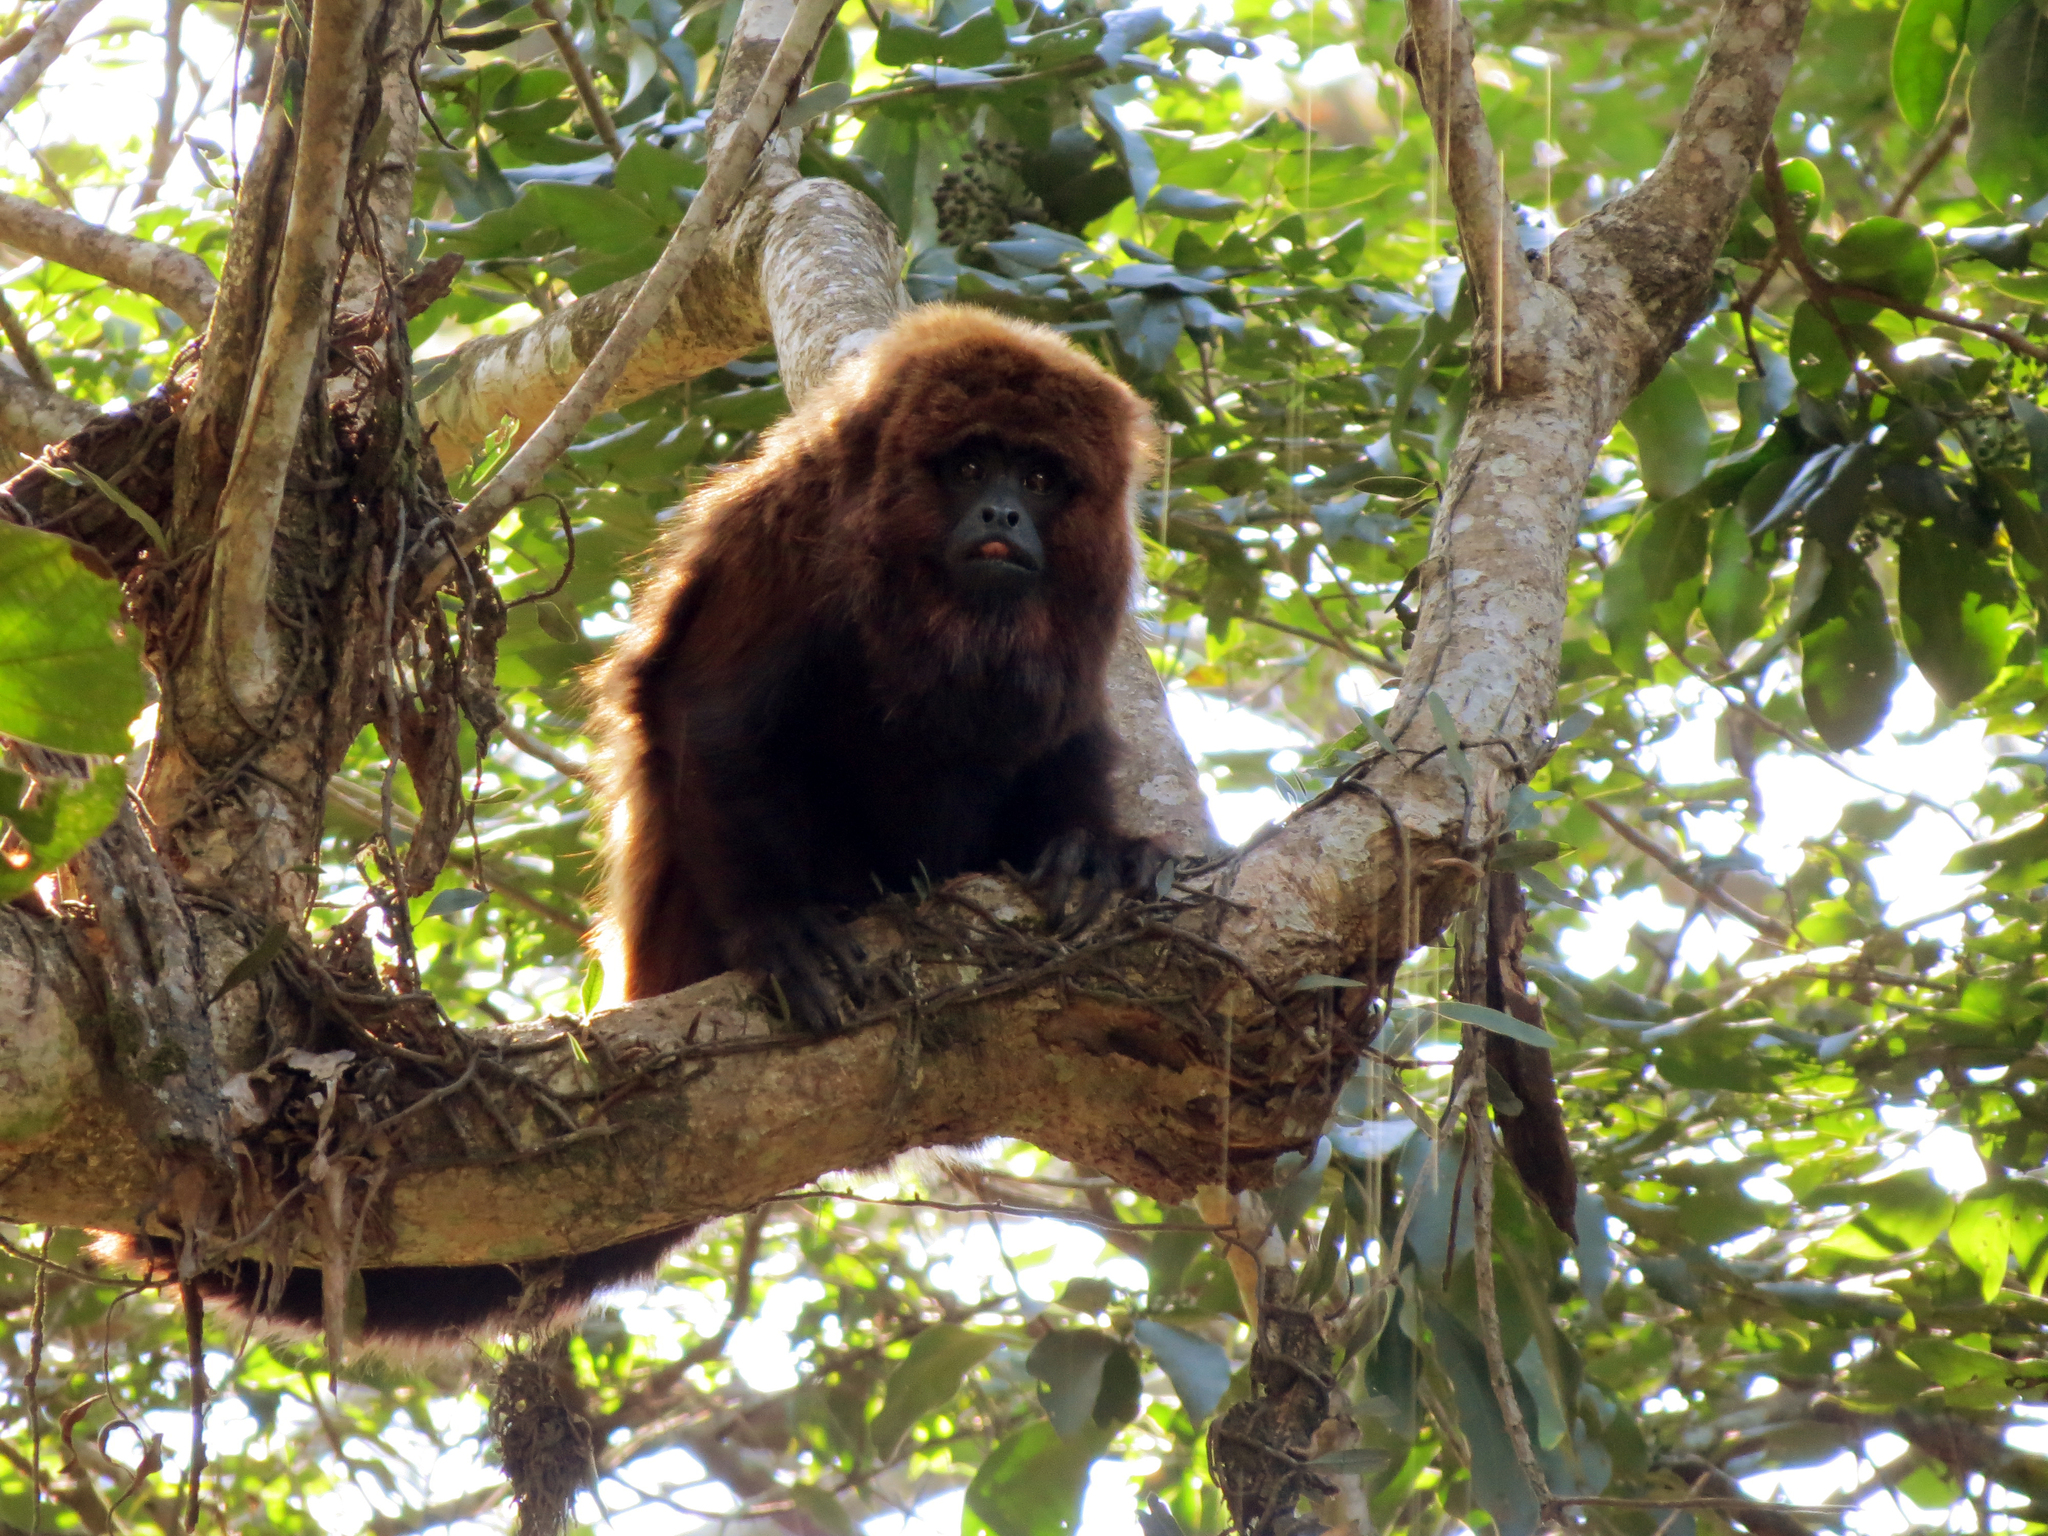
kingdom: Animalia
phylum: Chordata
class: Mammalia
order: Primates
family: Atelidae
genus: Alouatta
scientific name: Alouatta guariba
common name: Brown howler monkey
